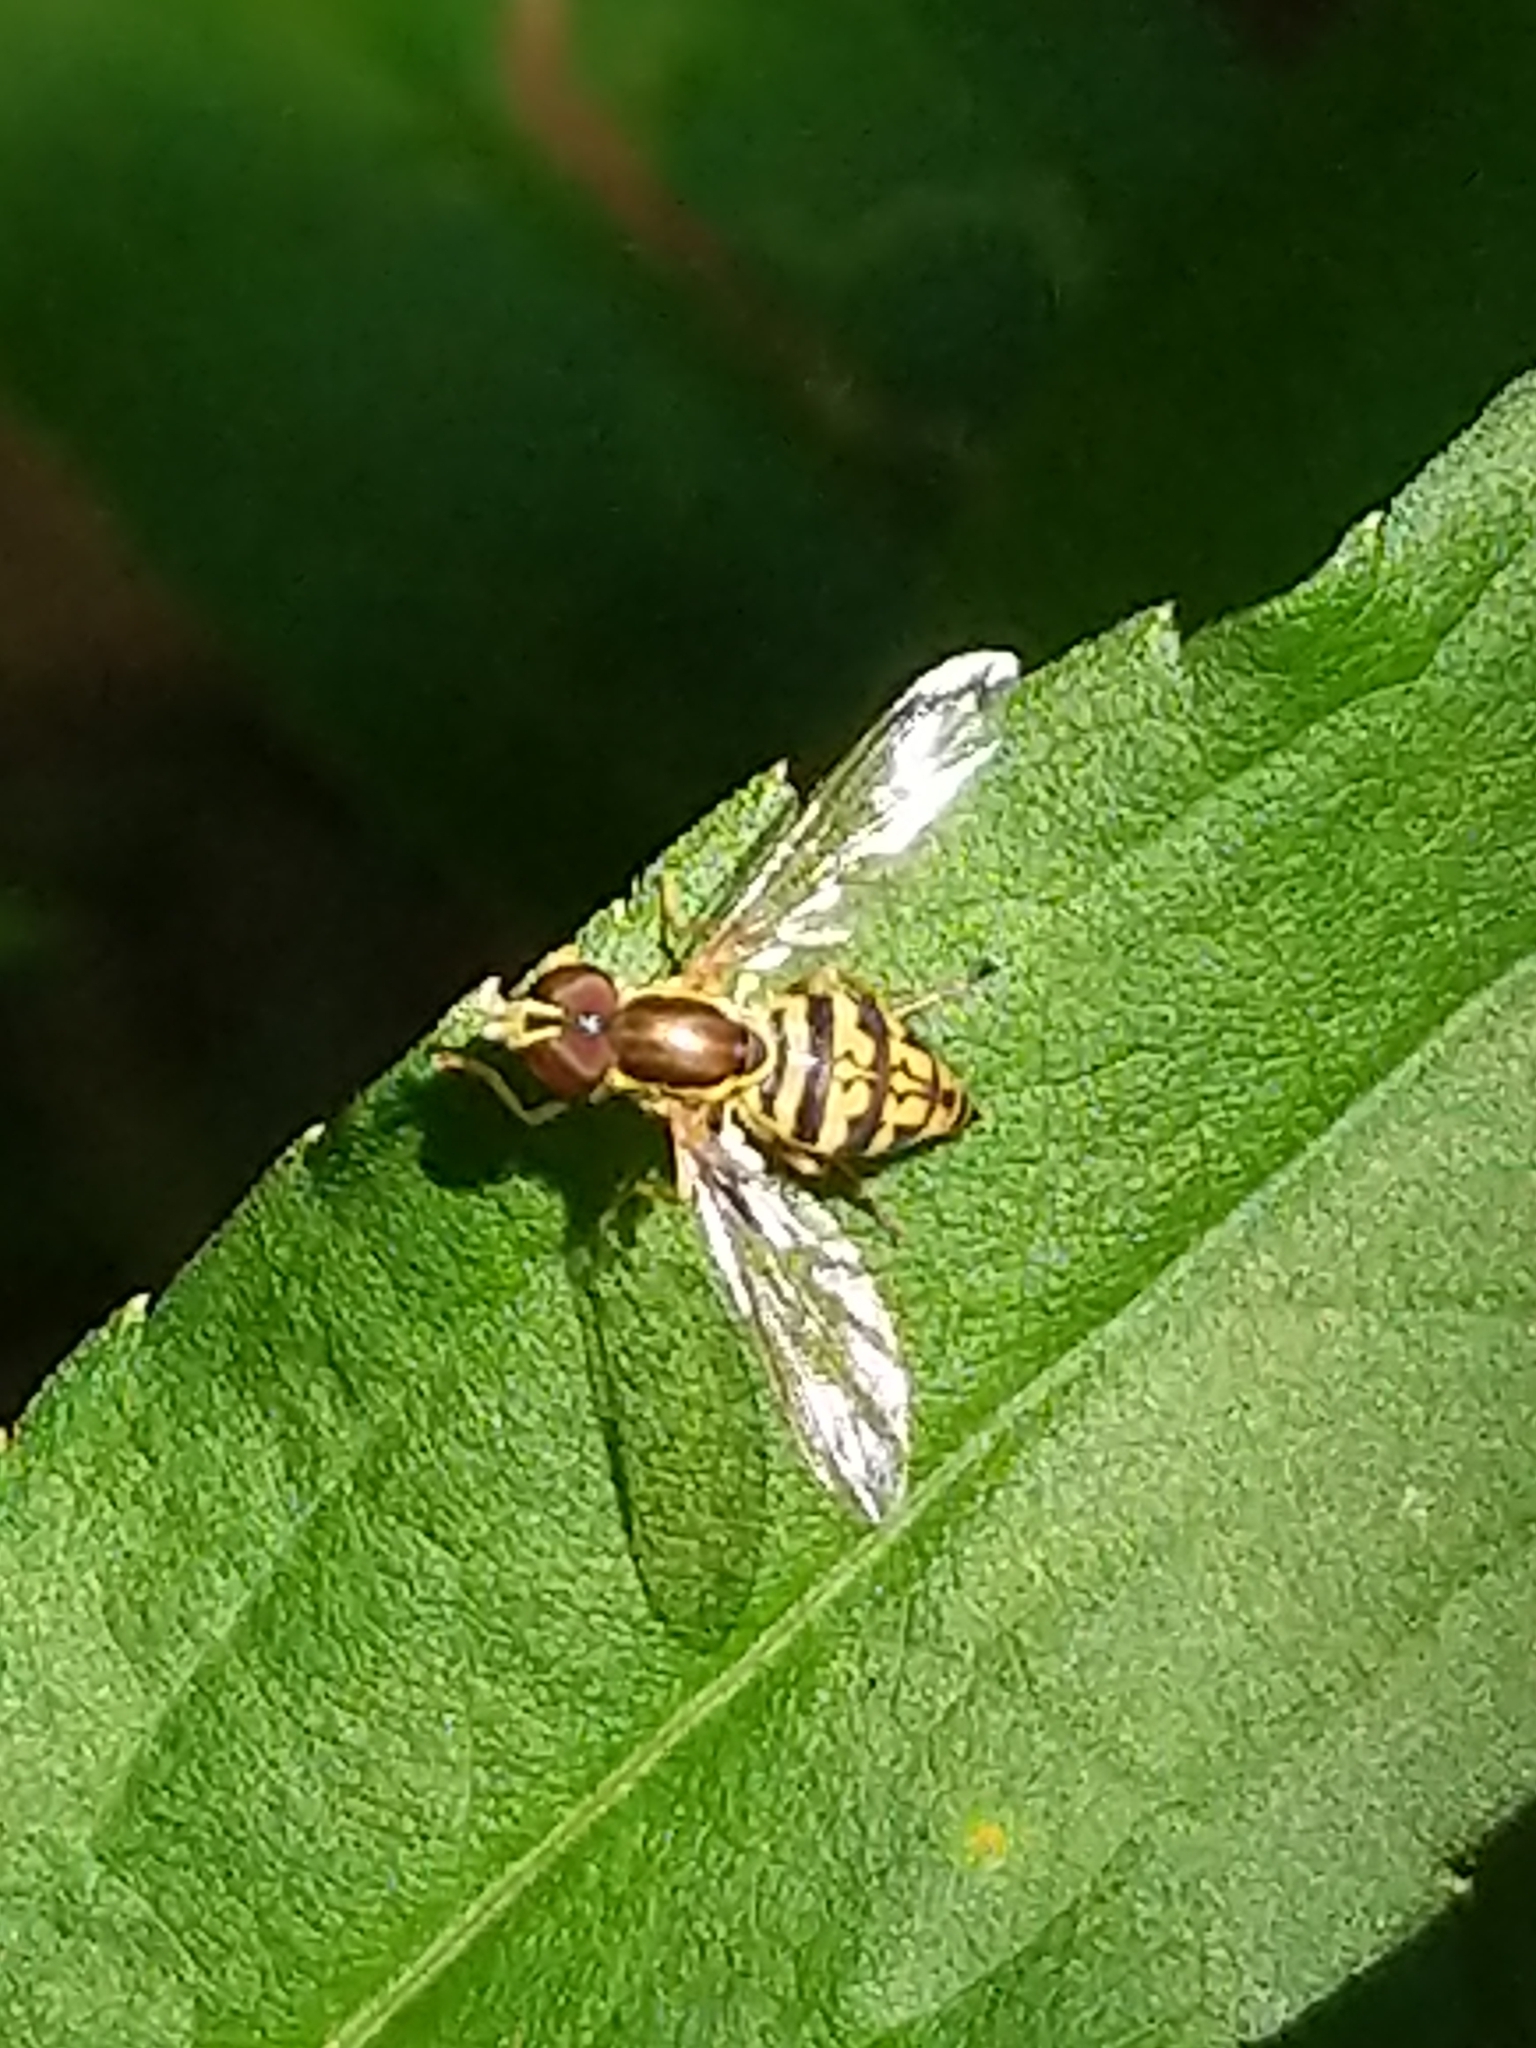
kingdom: Animalia
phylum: Arthropoda
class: Insecta
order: Diptera
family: Syrphidae
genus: Toxomerus
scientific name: Toxomerus geminatus
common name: Eastern calligrapher
